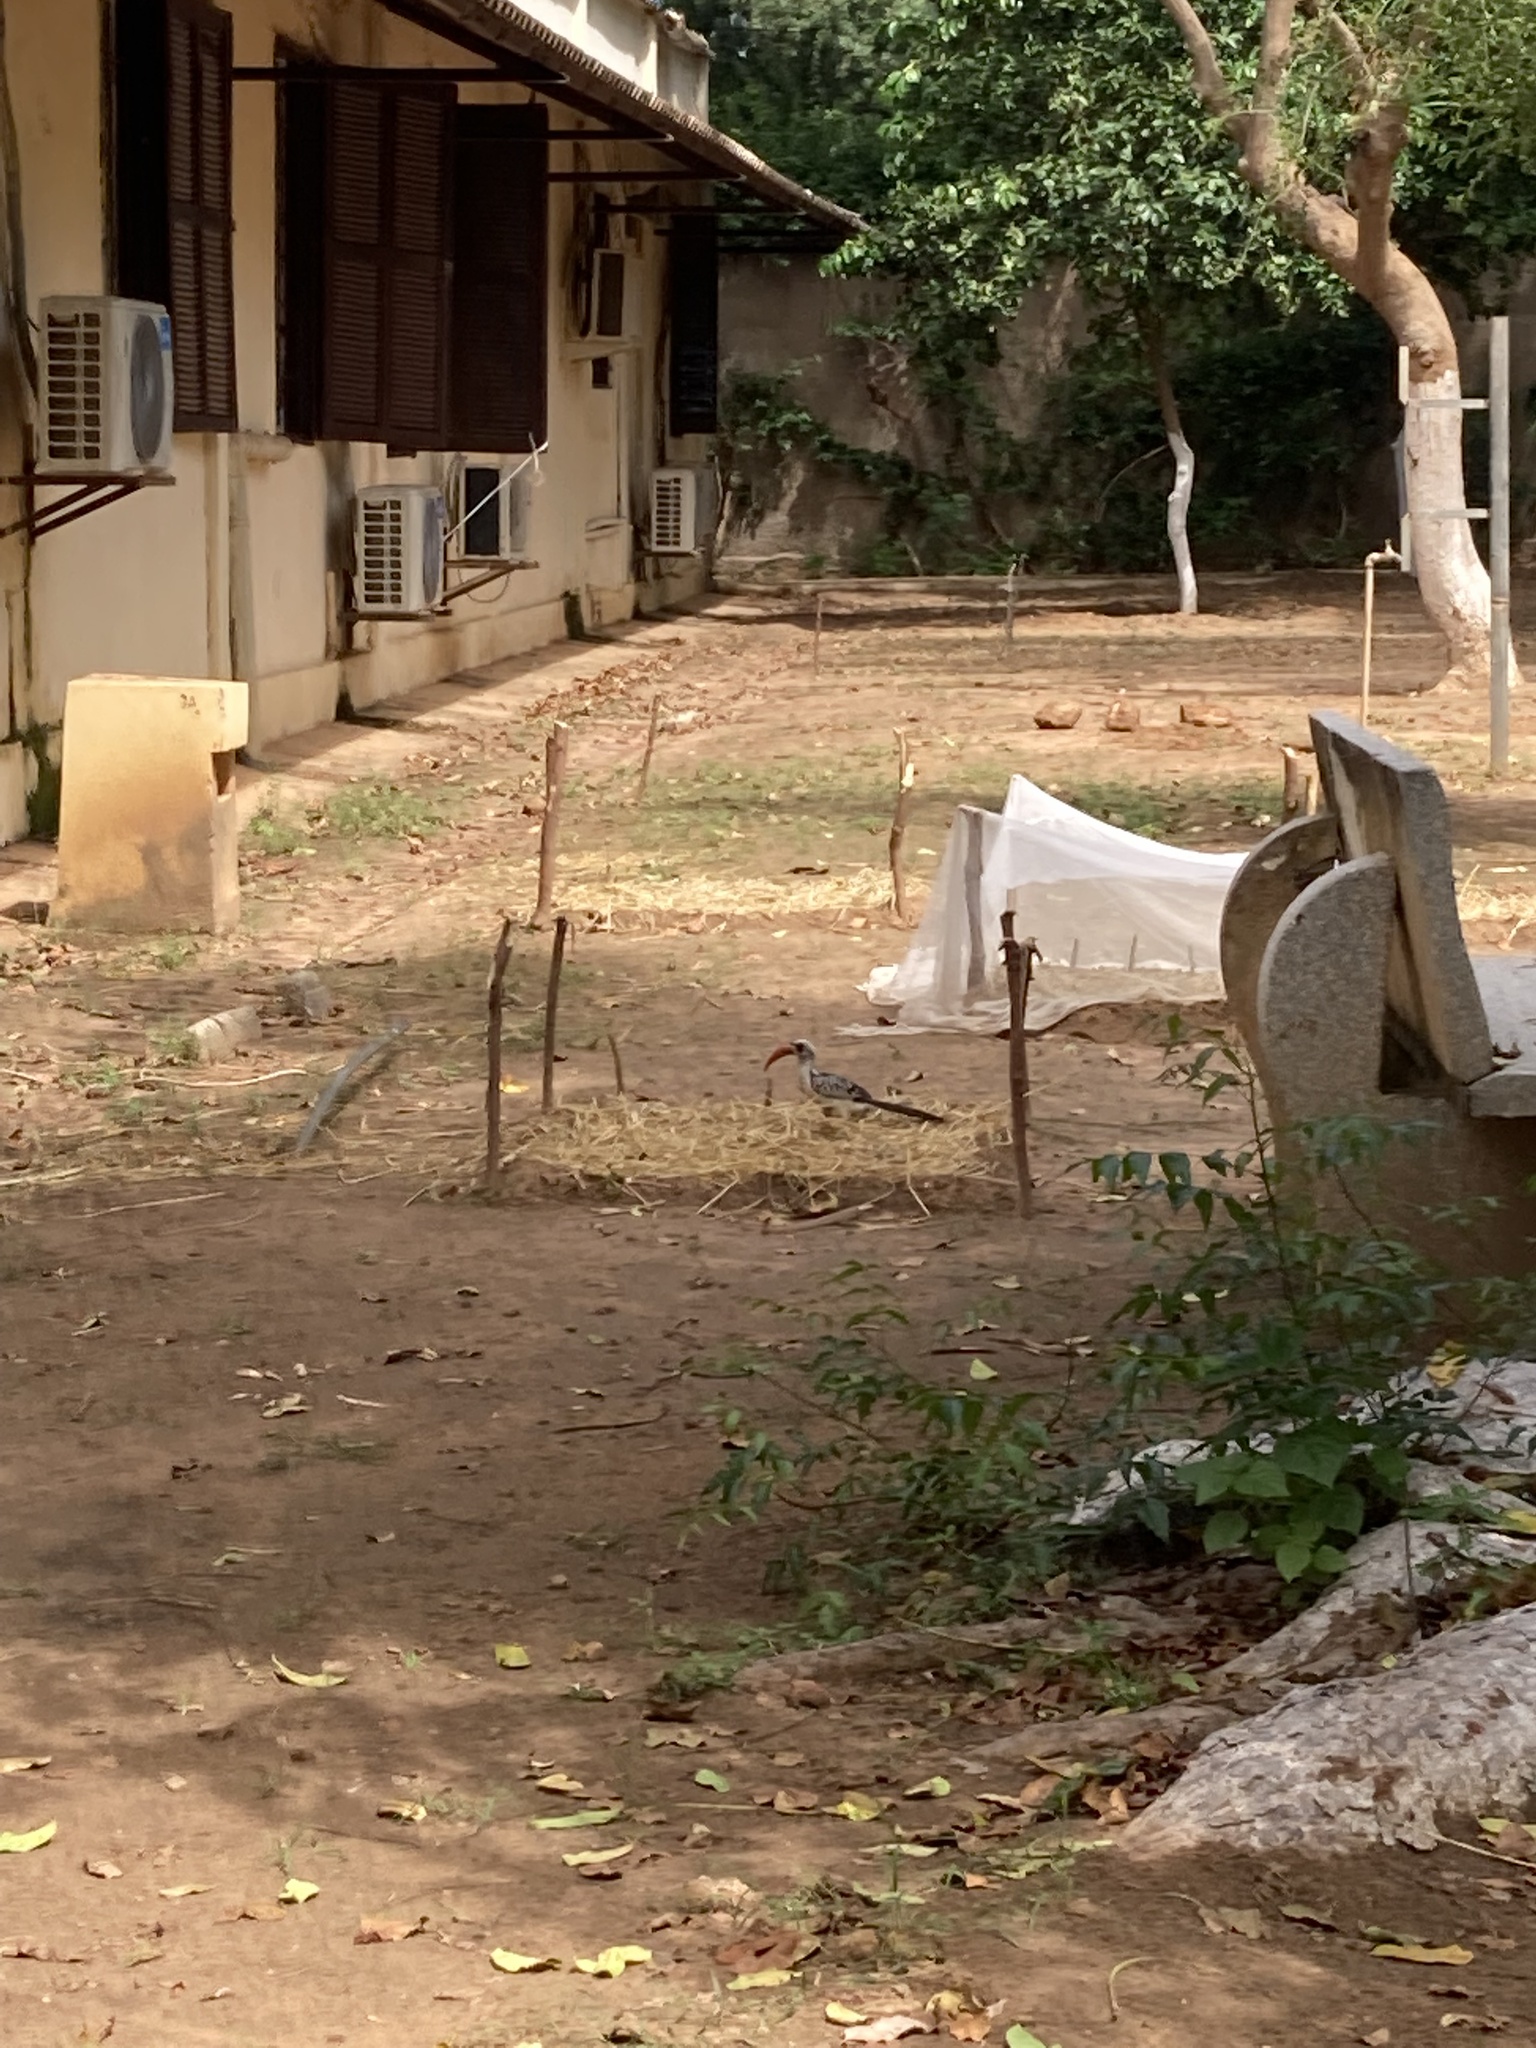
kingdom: Animalia
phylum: Chordata
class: Aves
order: Bucerotiformes
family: Bucerotidae
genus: Tockus
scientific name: Tockus kempi
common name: Western red-billed hornbill
